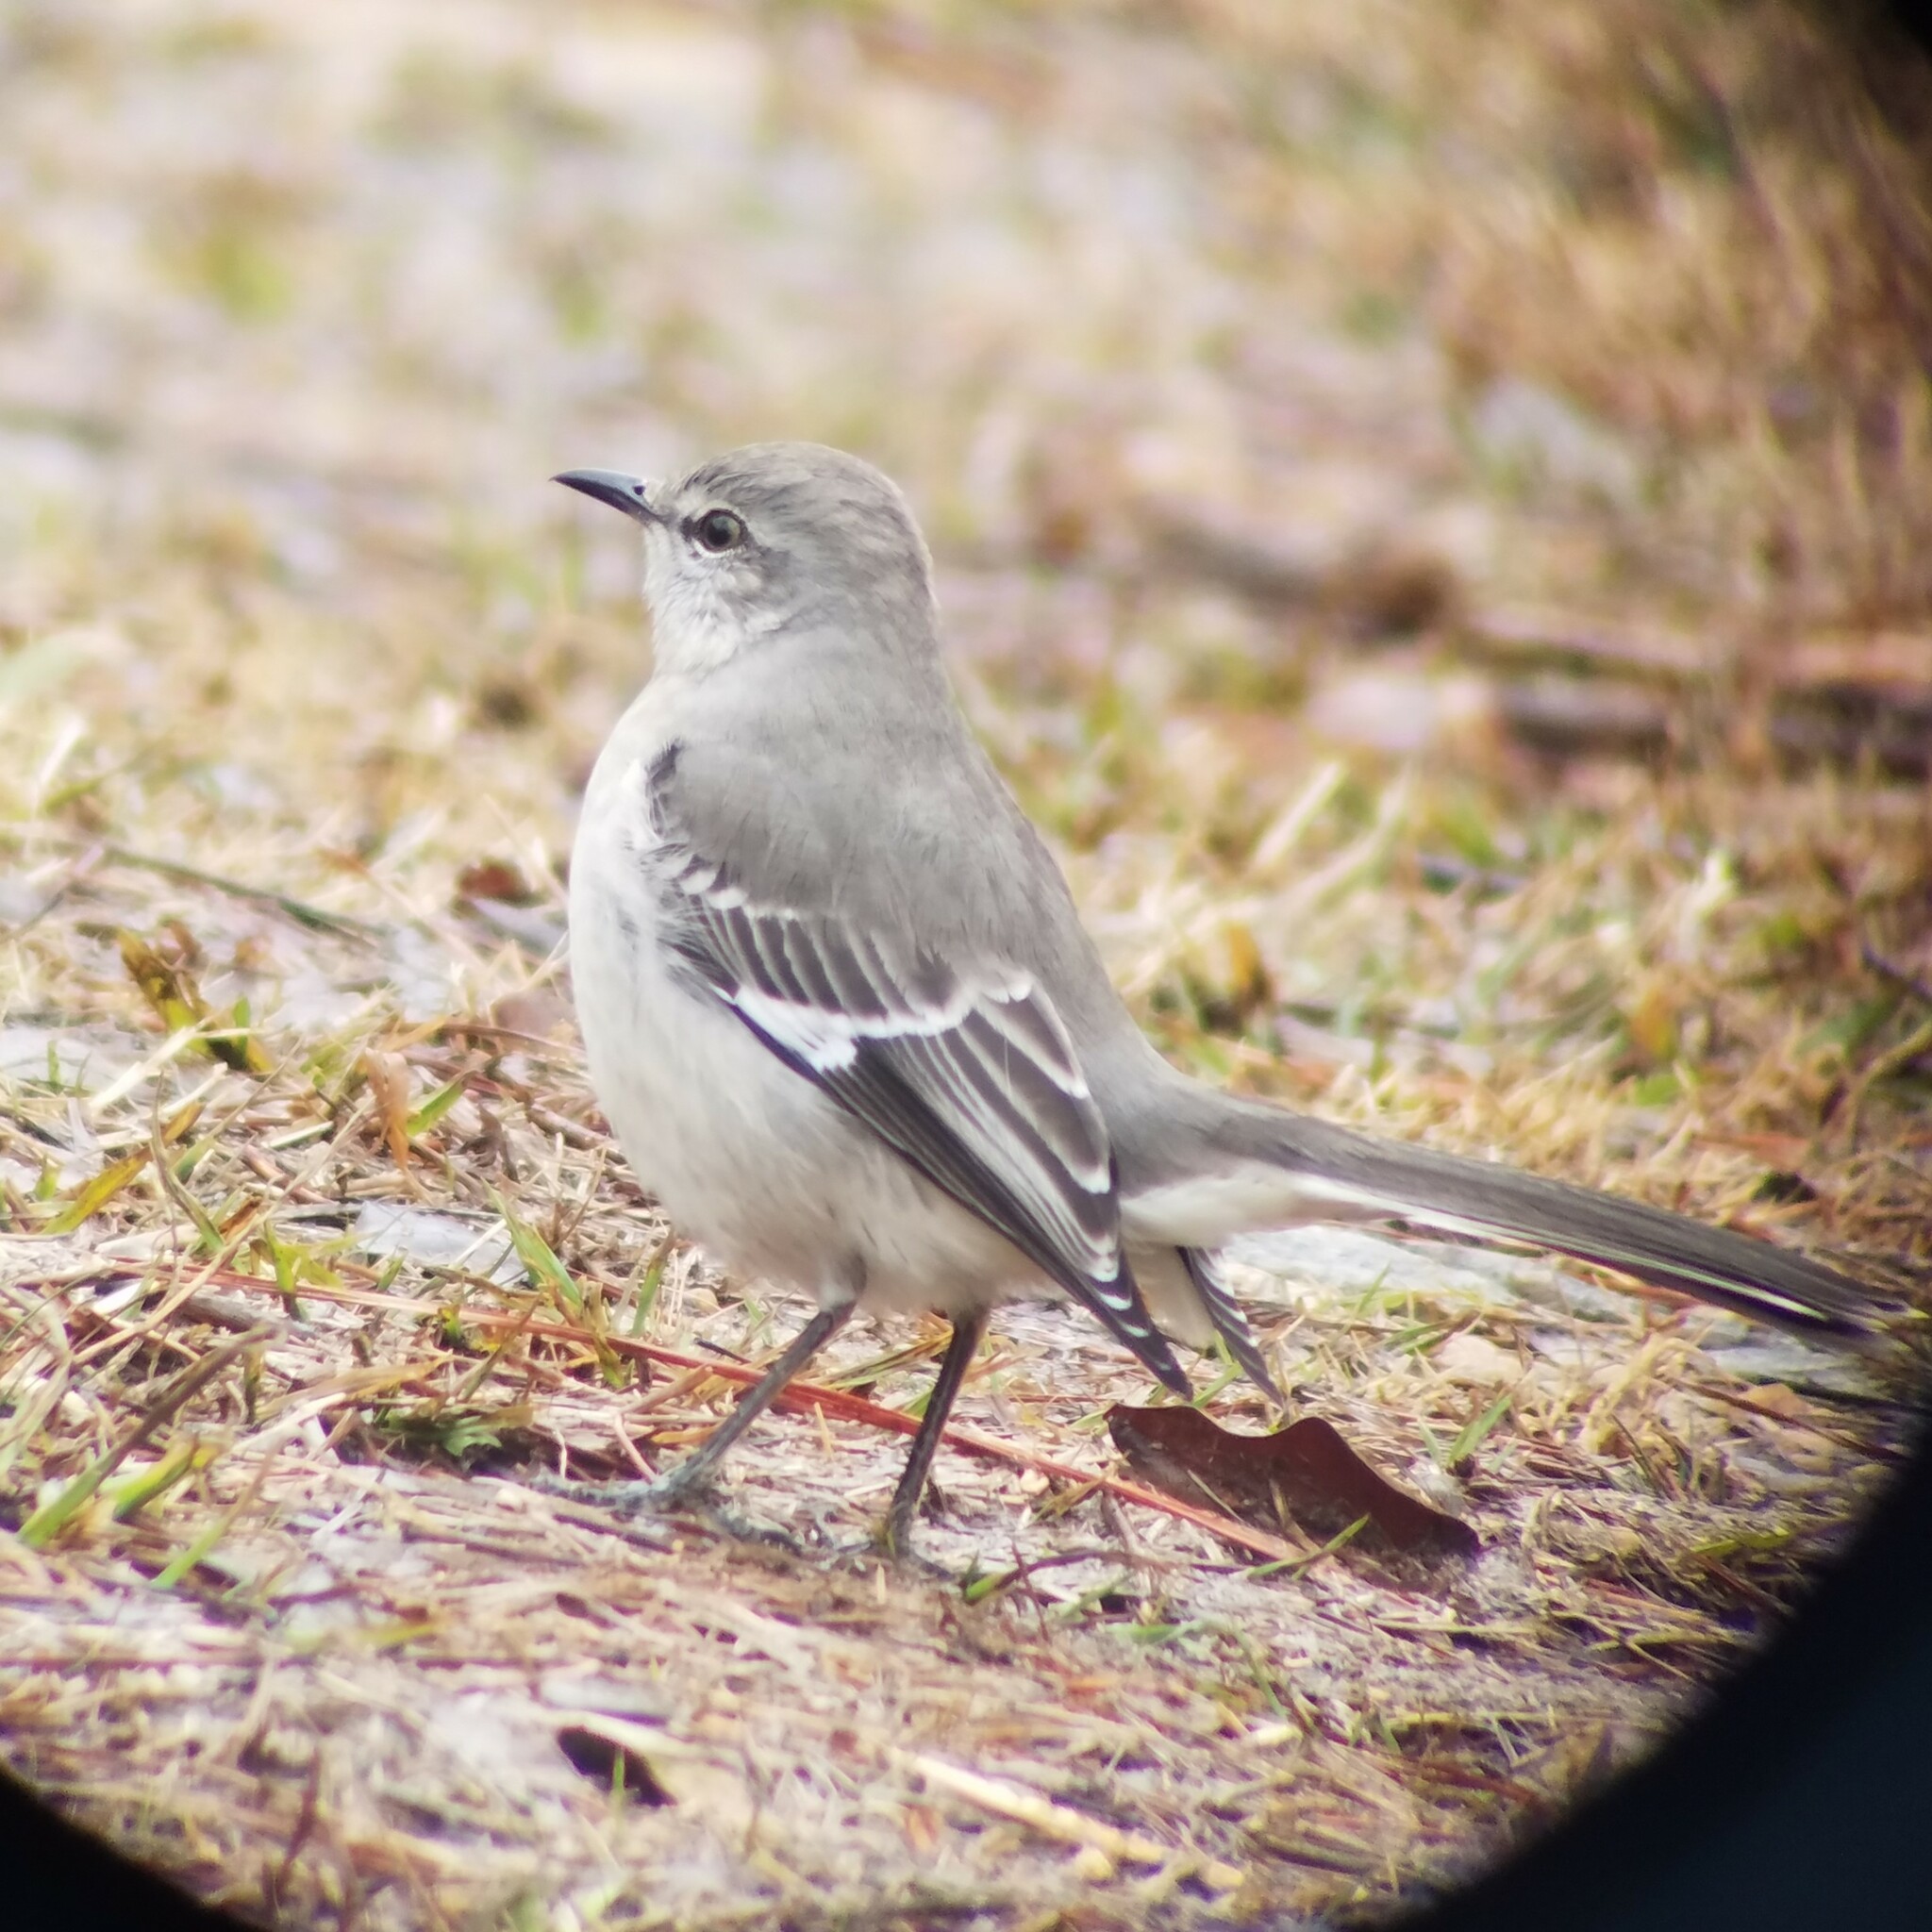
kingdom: Animalia
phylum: Chordata
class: Aves
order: Passeriformes
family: Mimidae
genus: Mimus
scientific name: Mimus polyglottos
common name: Northern mockingbird
